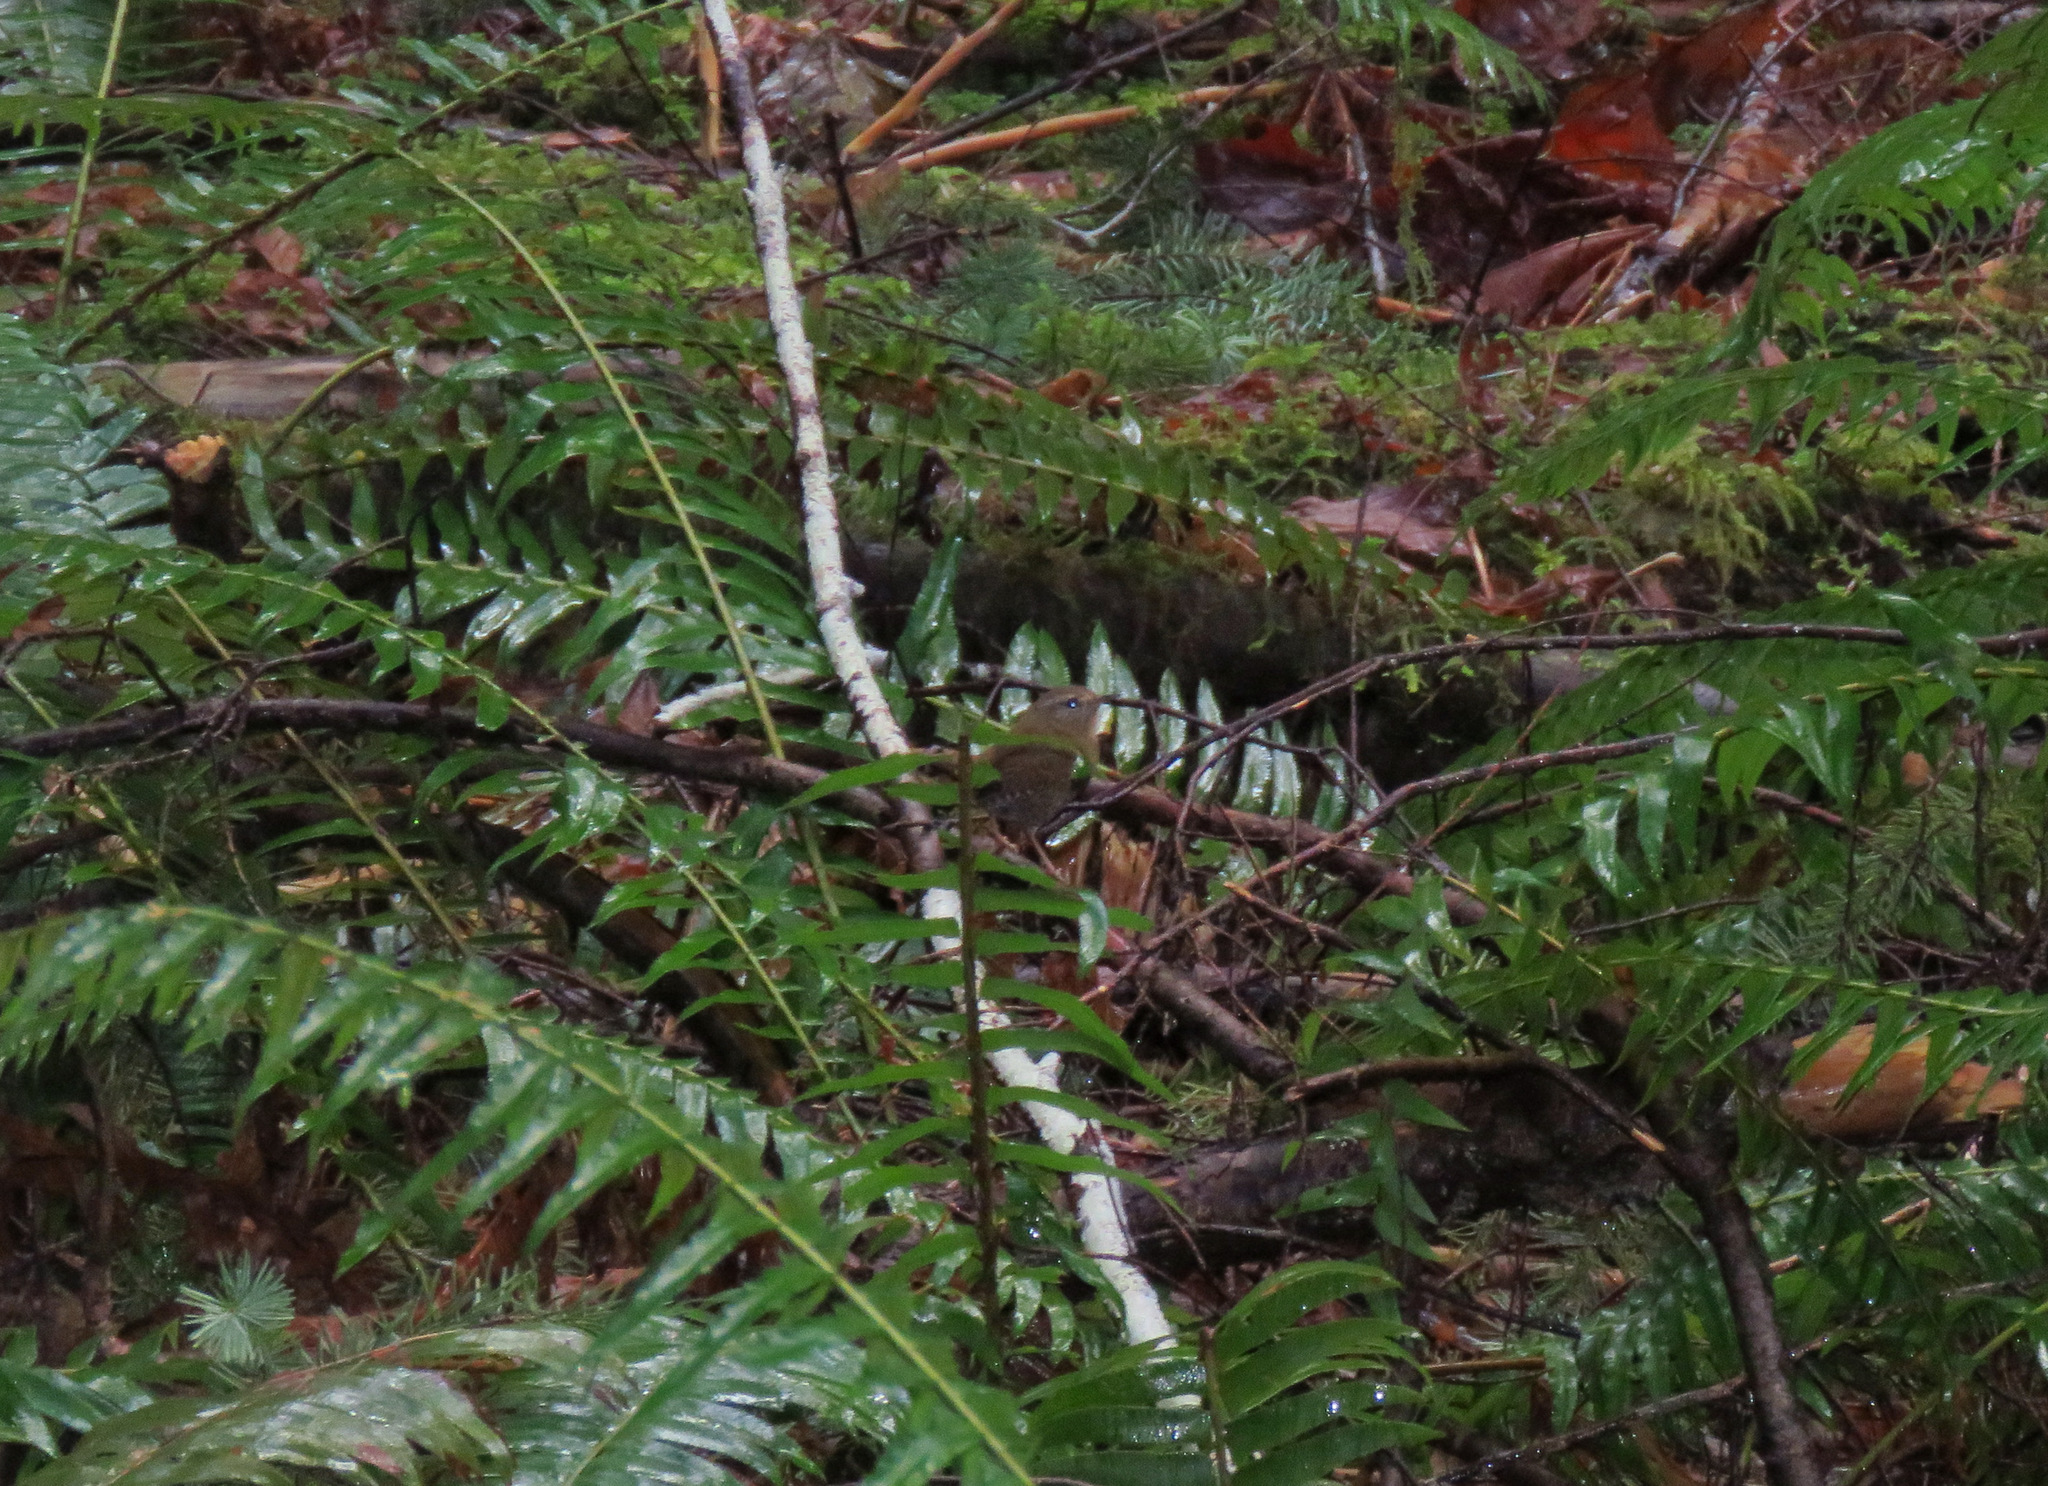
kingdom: Animalia
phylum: Chordata
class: Aves
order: Passeriformes
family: Troglodytidae
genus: Troglodytes
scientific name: Troglodytes pacificus
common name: Pacific wren
